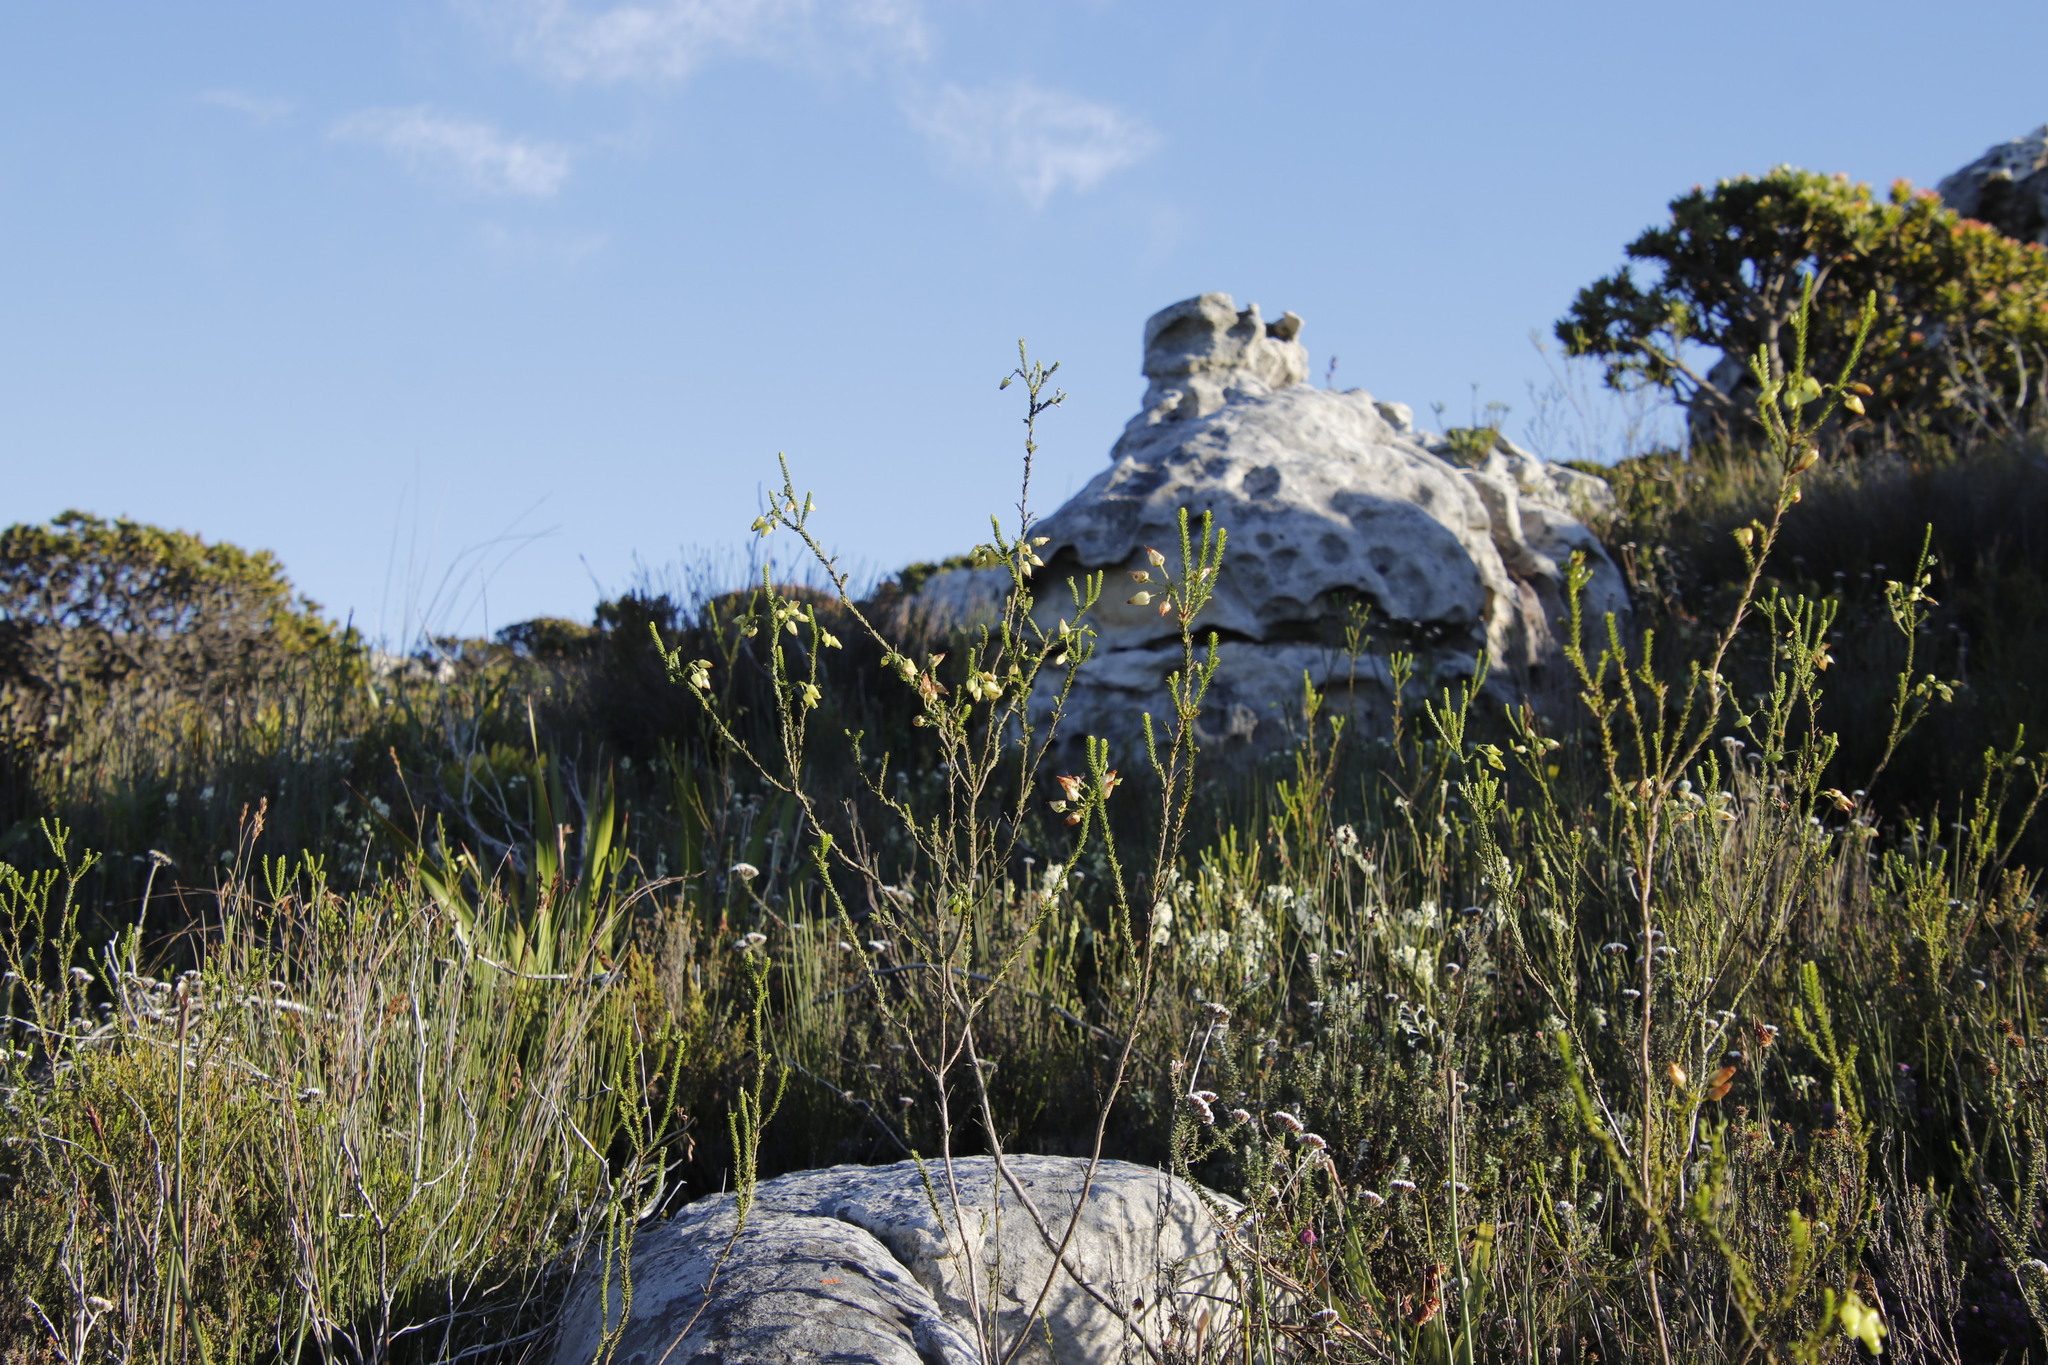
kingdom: Plantae
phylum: Tracheophyta
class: Magnoliopsida
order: Ericales
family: Ericaceae
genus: Erica
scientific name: Erica urna-viridis
